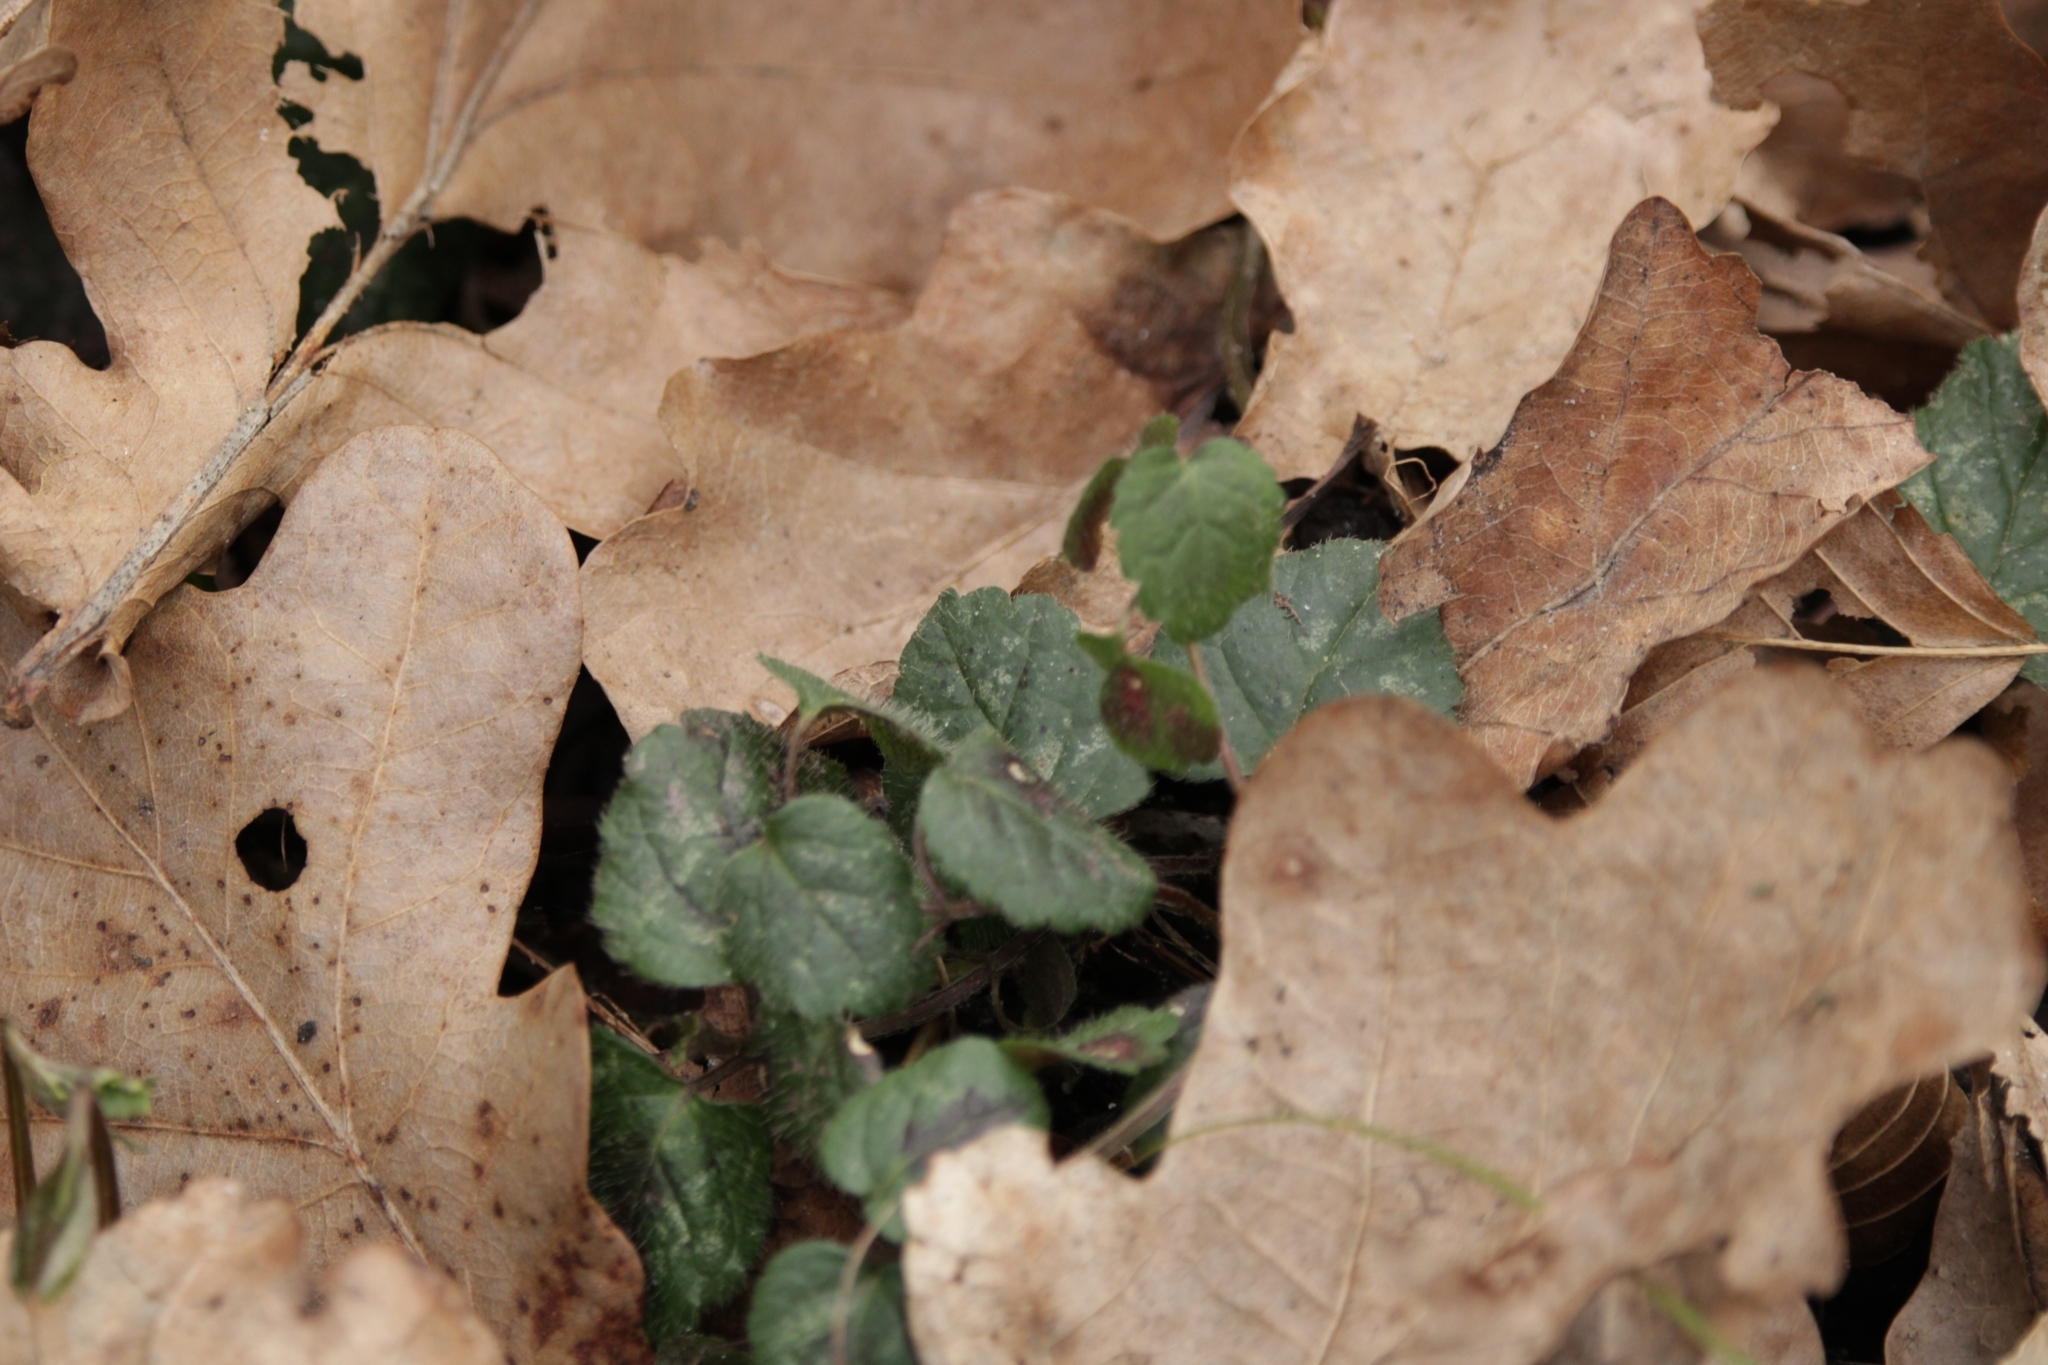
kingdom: Plantae
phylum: Tracheophyta
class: Magnoliopsida
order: Lamiales
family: Lamiaceae
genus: Glechoma
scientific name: Glechoma hederacea
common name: Ground ivy
